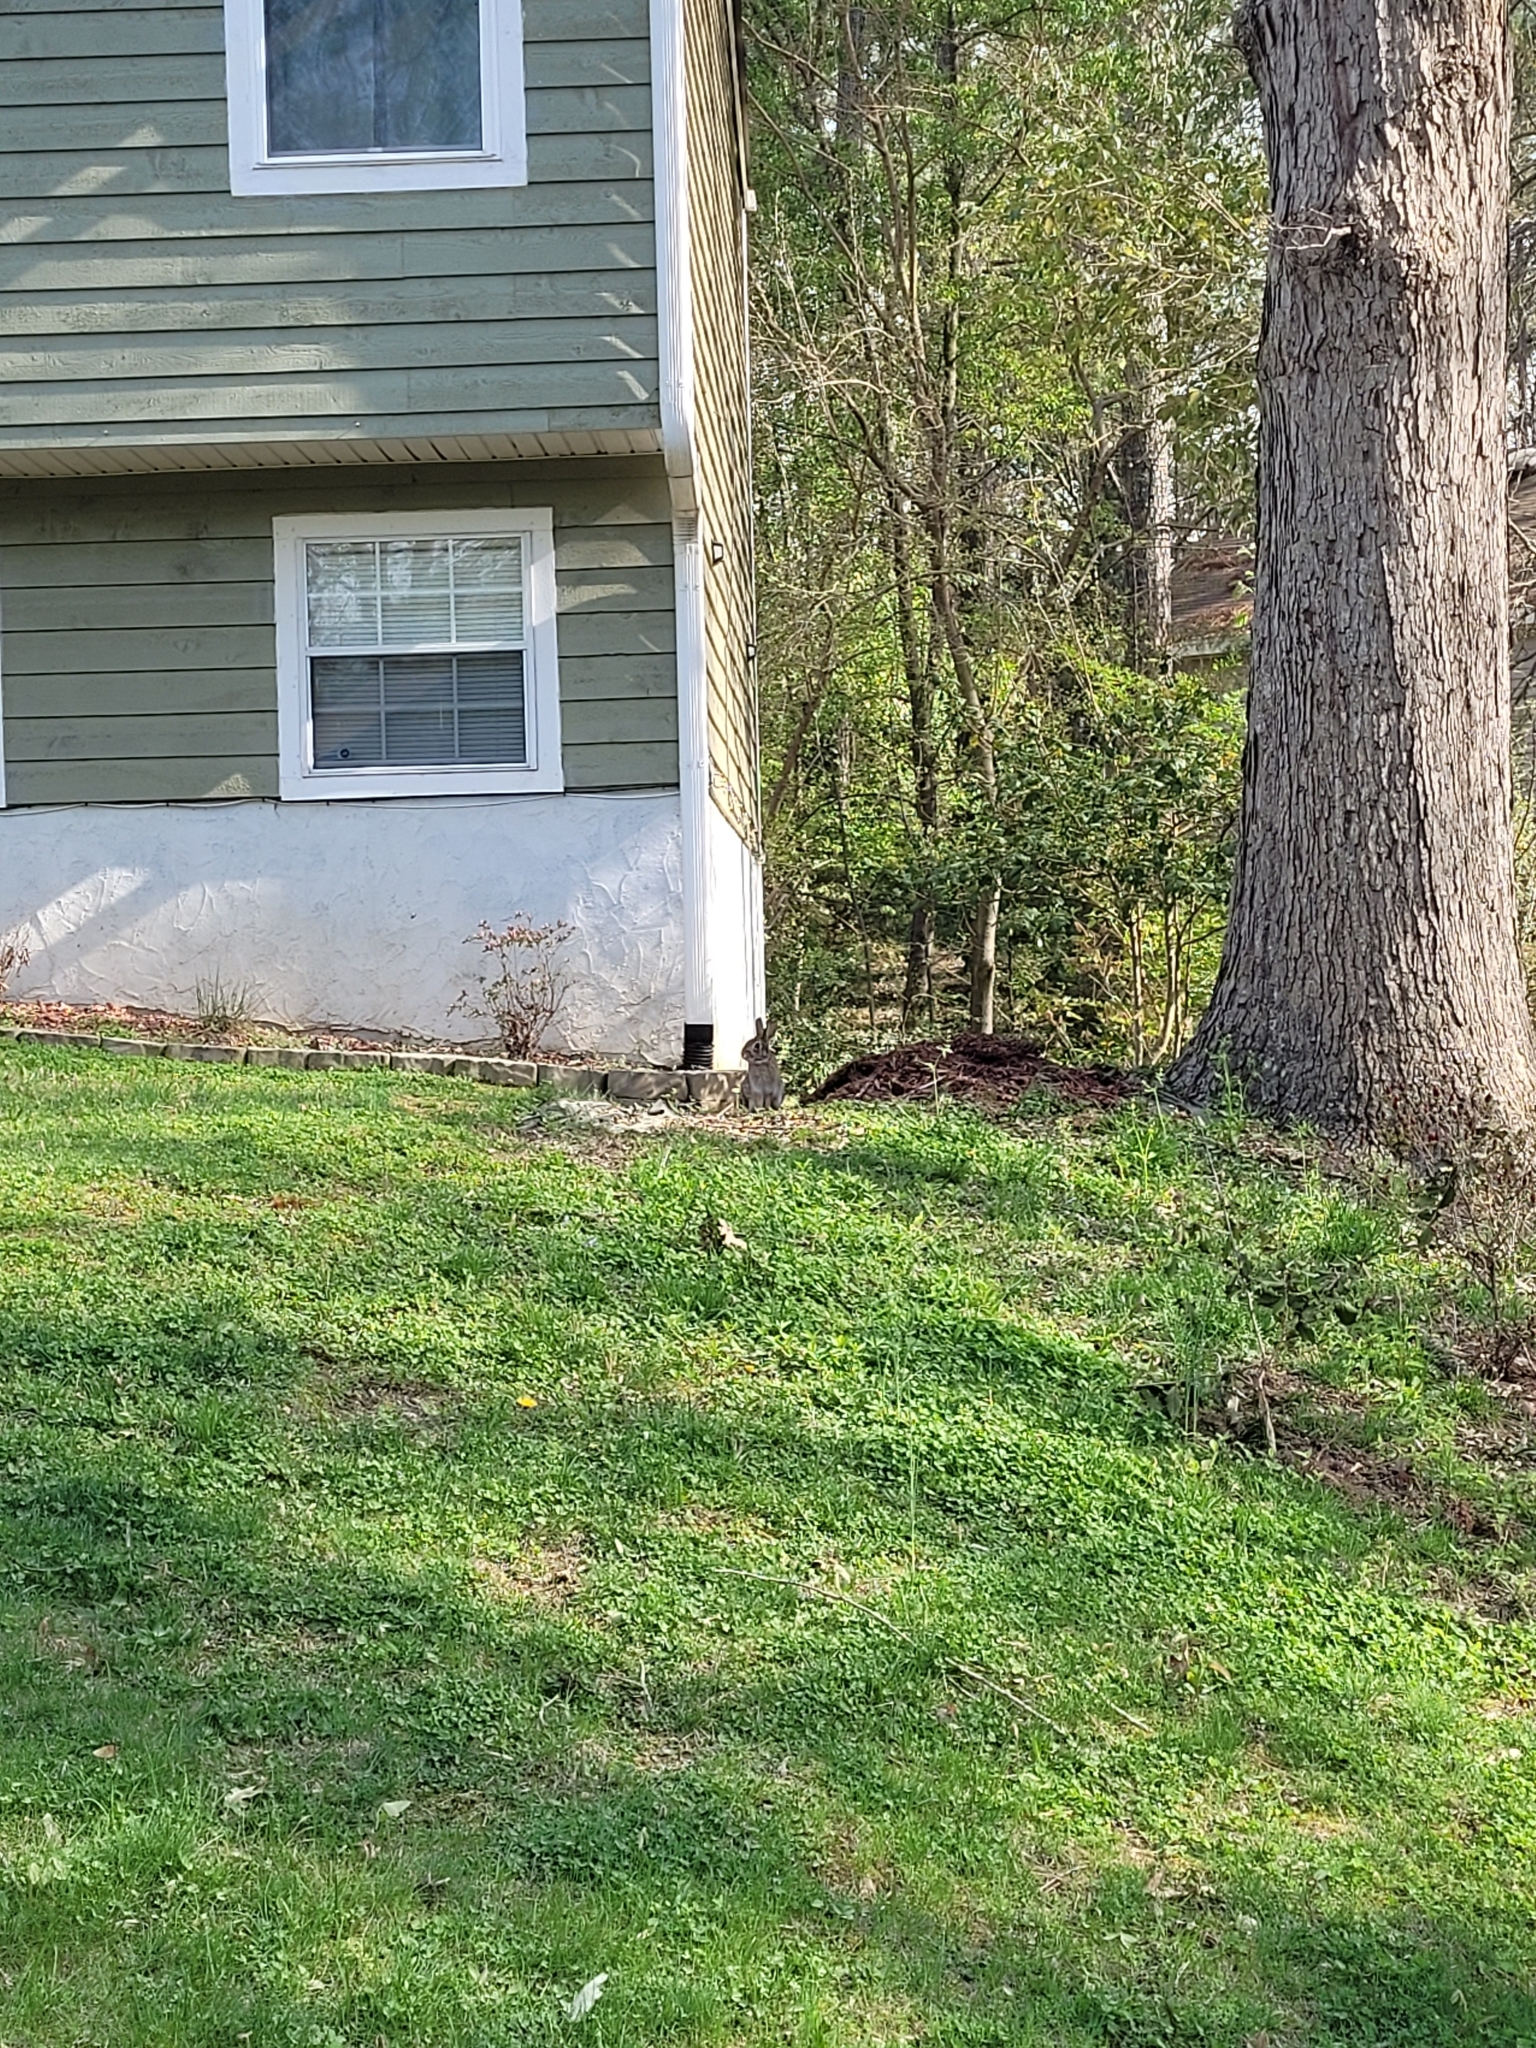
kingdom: Animalia
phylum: Chordata
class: Mammalia
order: Lagomorpha
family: Leporidae
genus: Sylvilagus
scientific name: Sylvilagus floridanus
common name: Eastern cottontail
